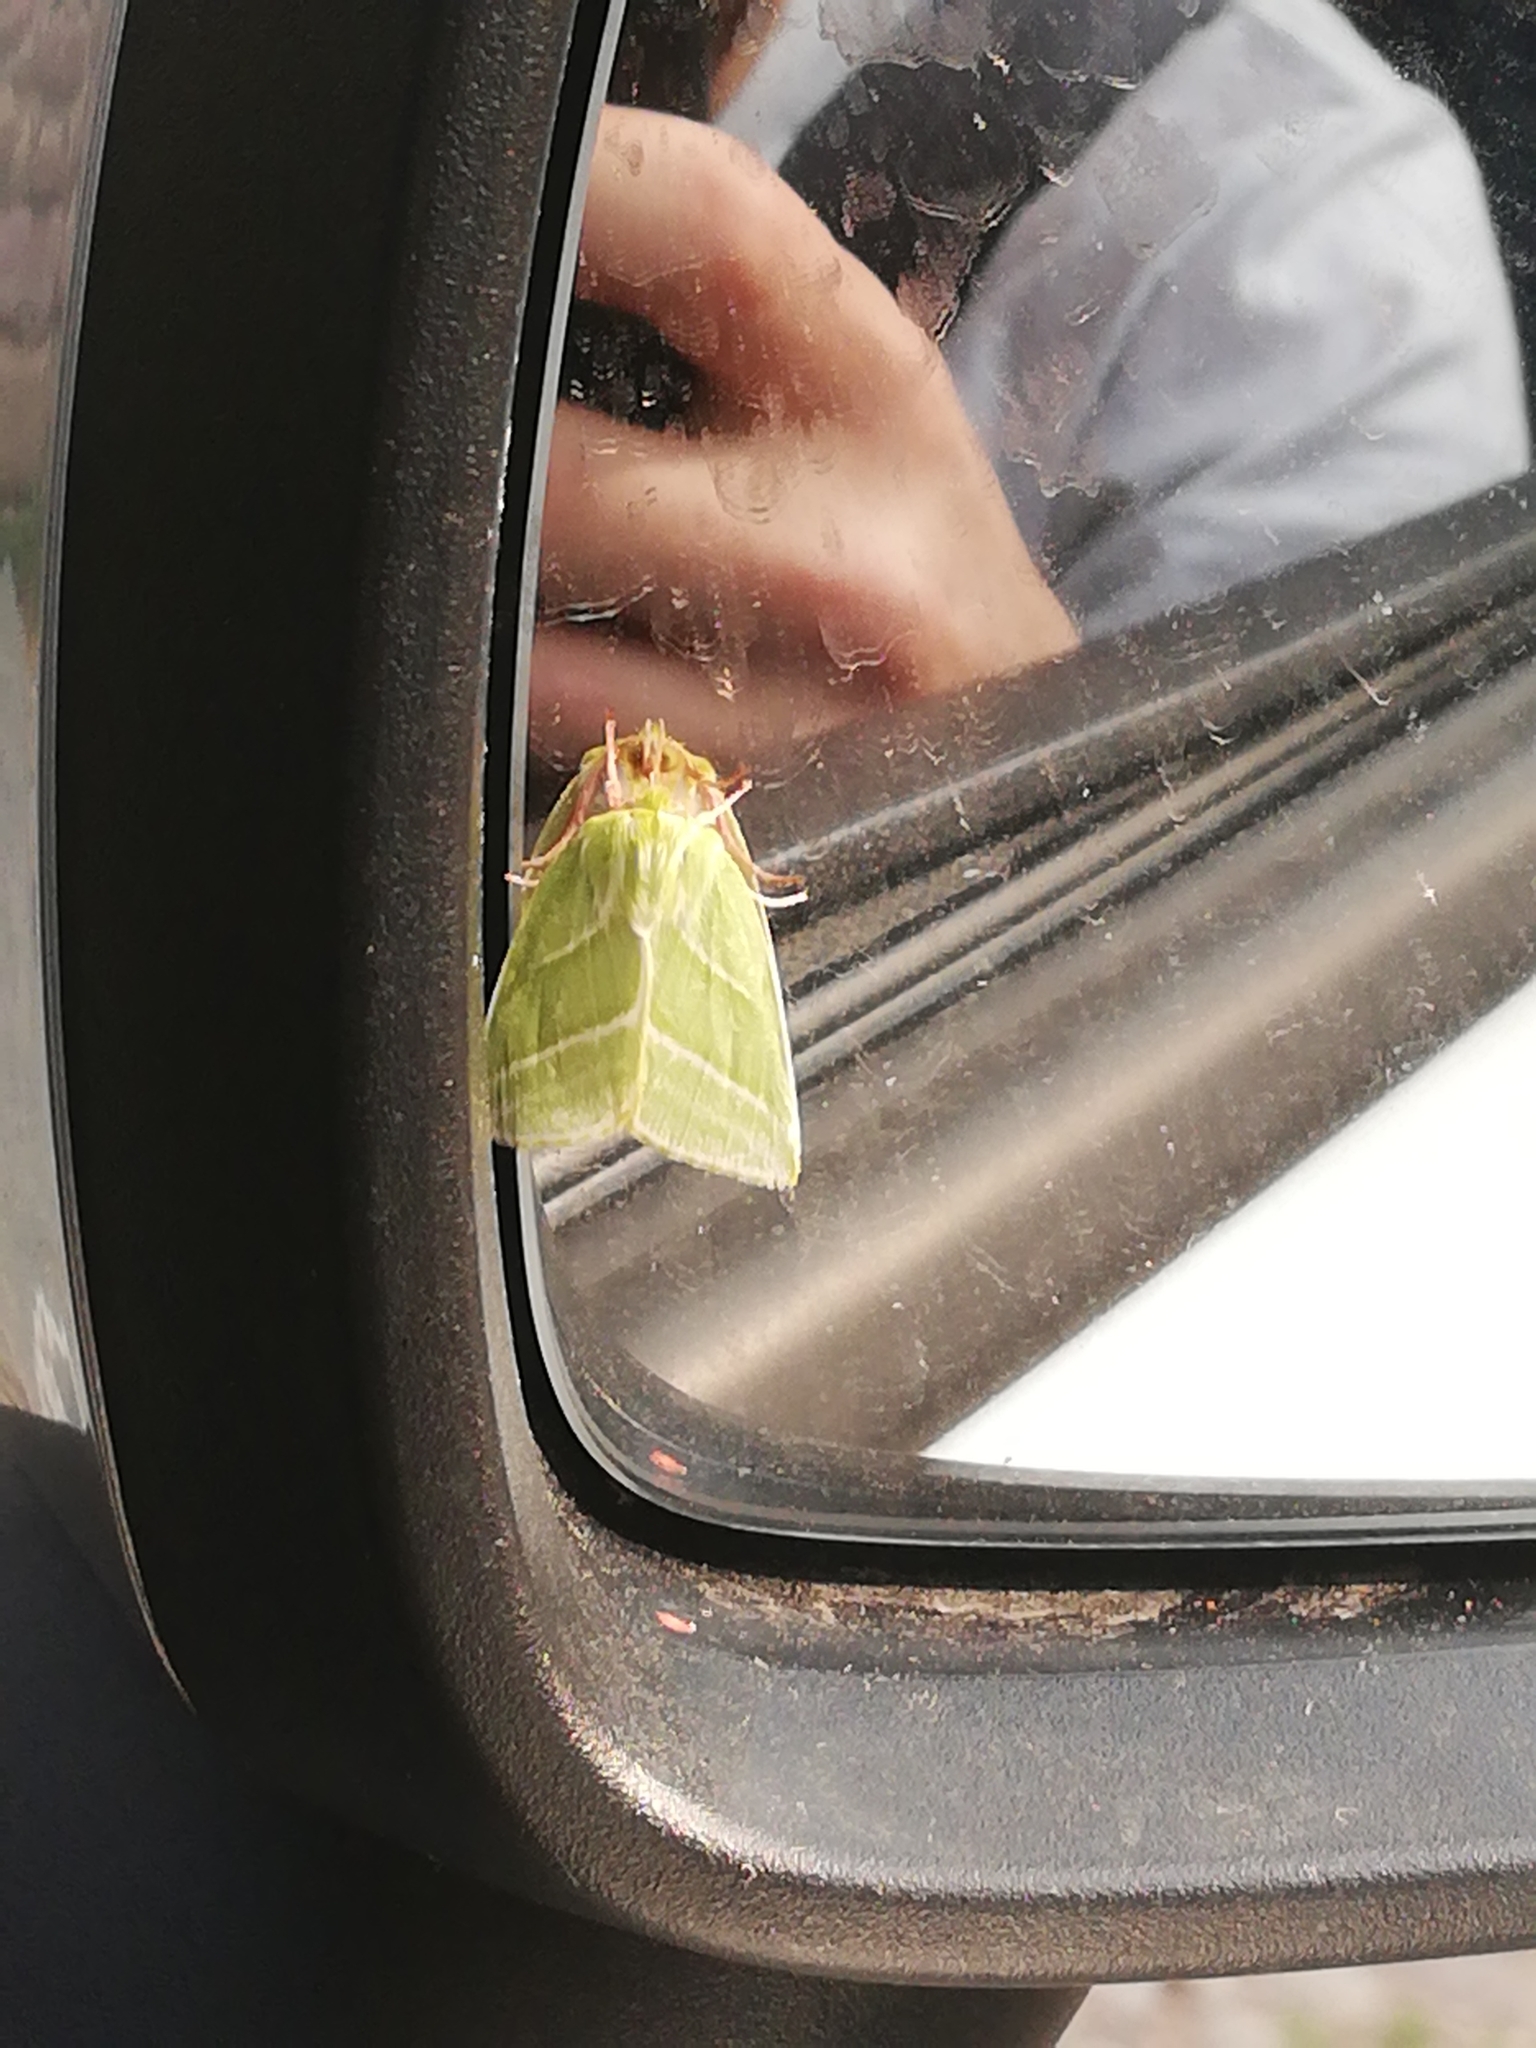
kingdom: Animalia
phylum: Arthropoda
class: Insecta
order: Lepidoptera
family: Nolidae
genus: Pseudoips
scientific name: Pseudoips prasinana
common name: Green silver-lines
